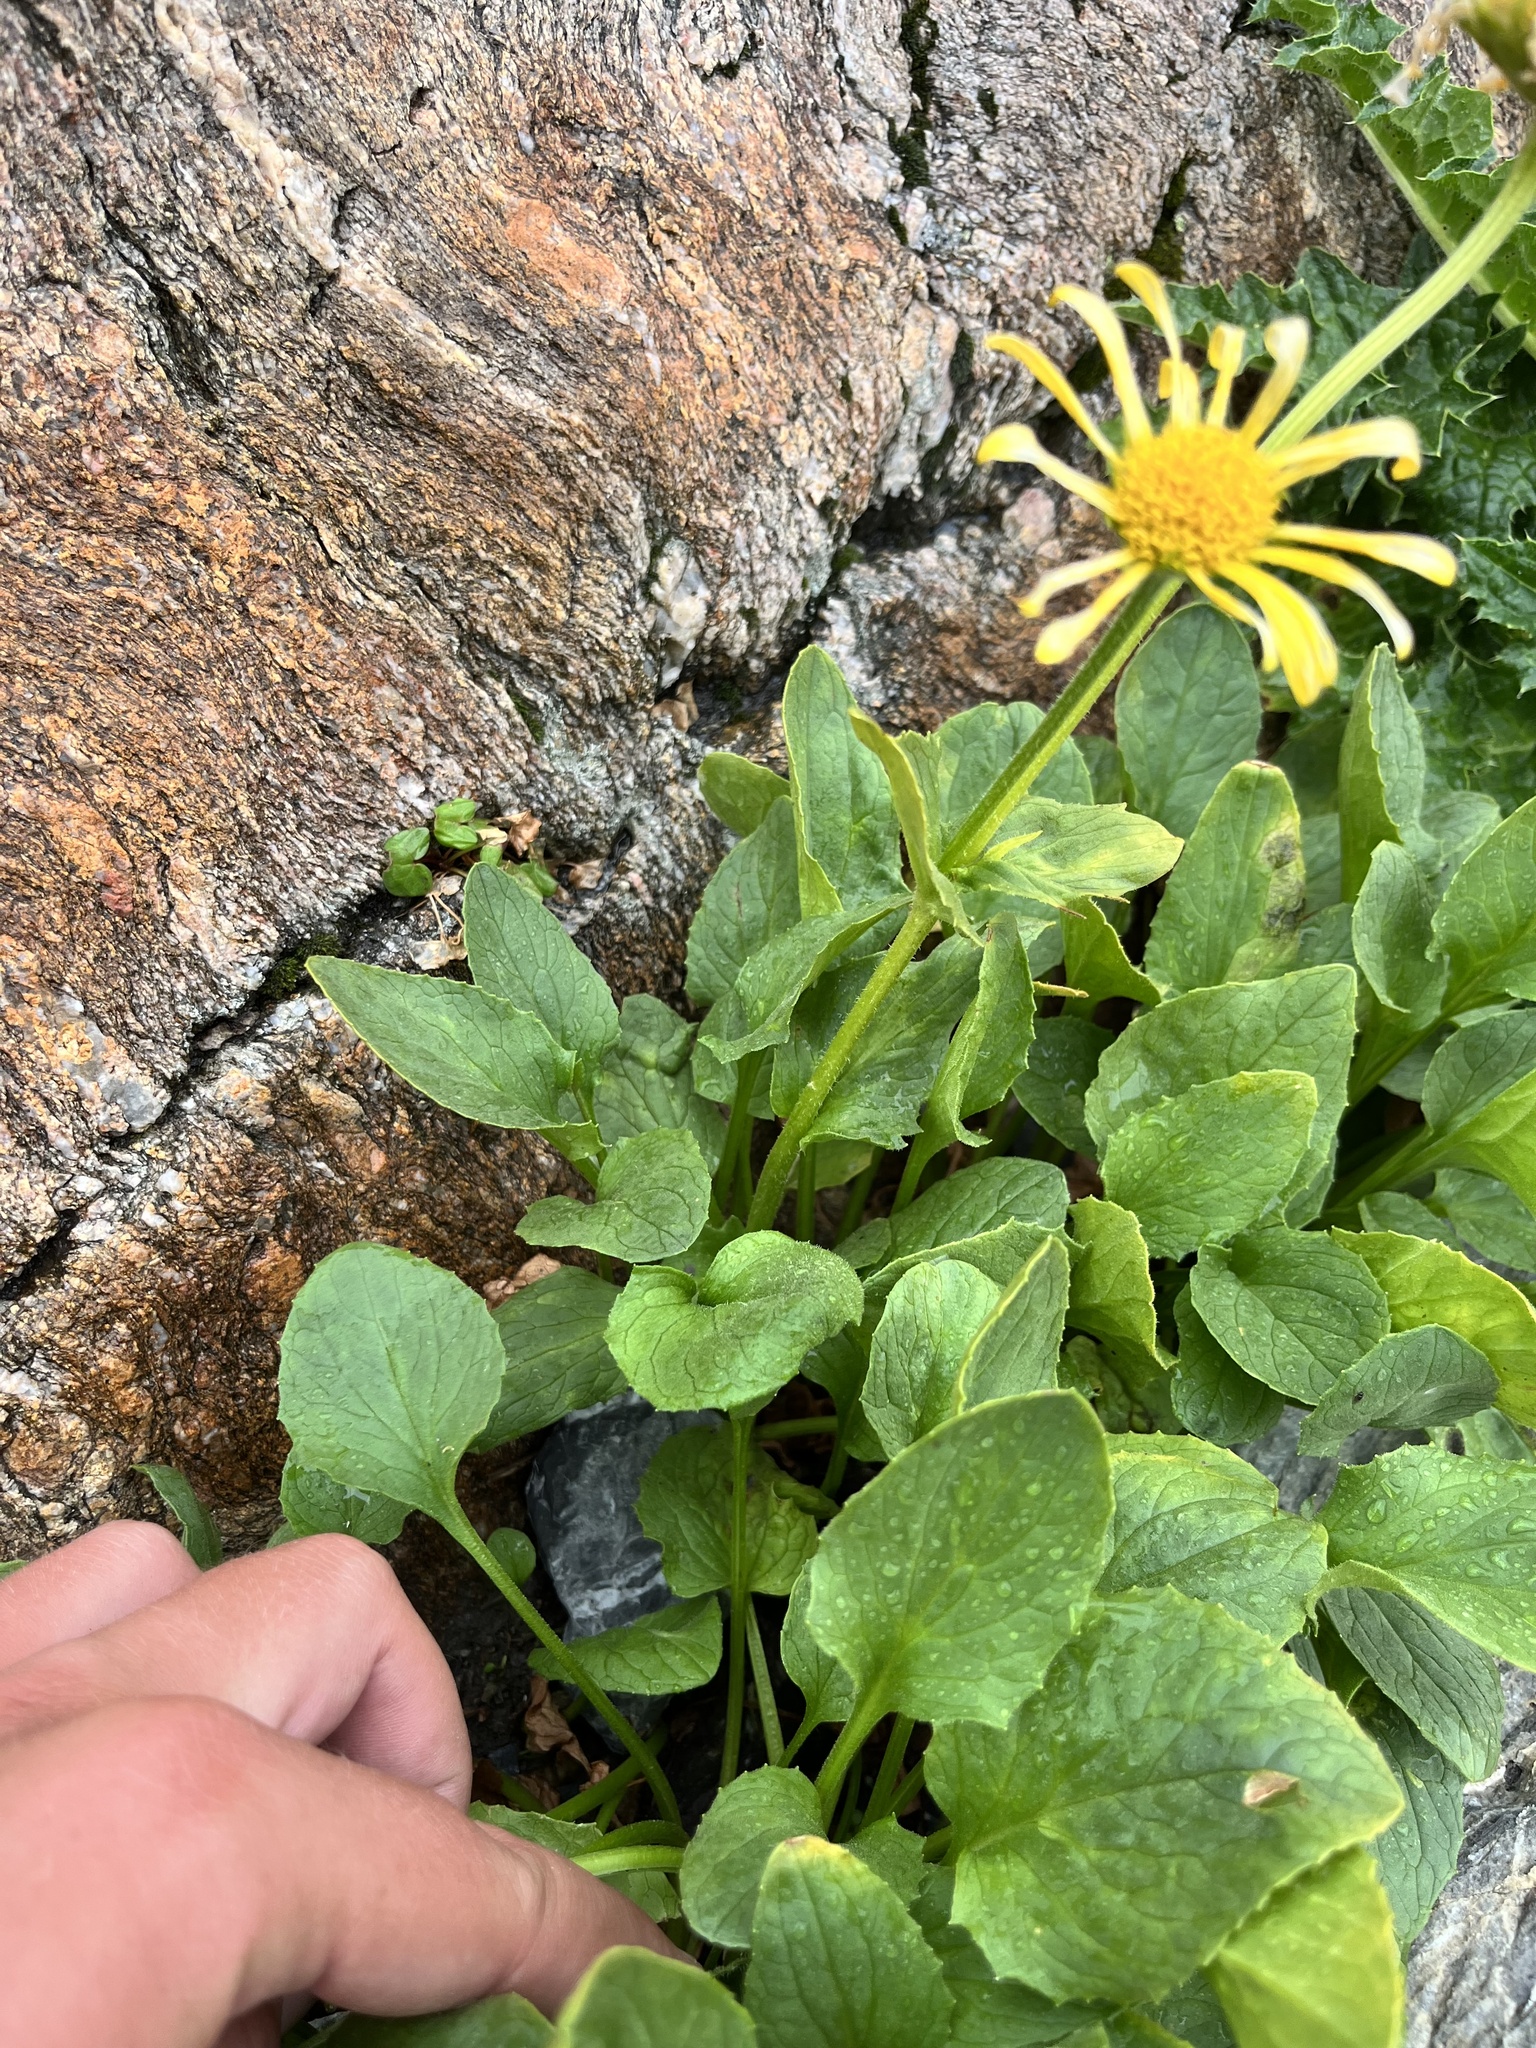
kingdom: Plantae
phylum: Tracheophyta
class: Magnoliopsida
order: Asterales
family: Asteraceae
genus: Doronicum
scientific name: Doronicum grandiflorum
